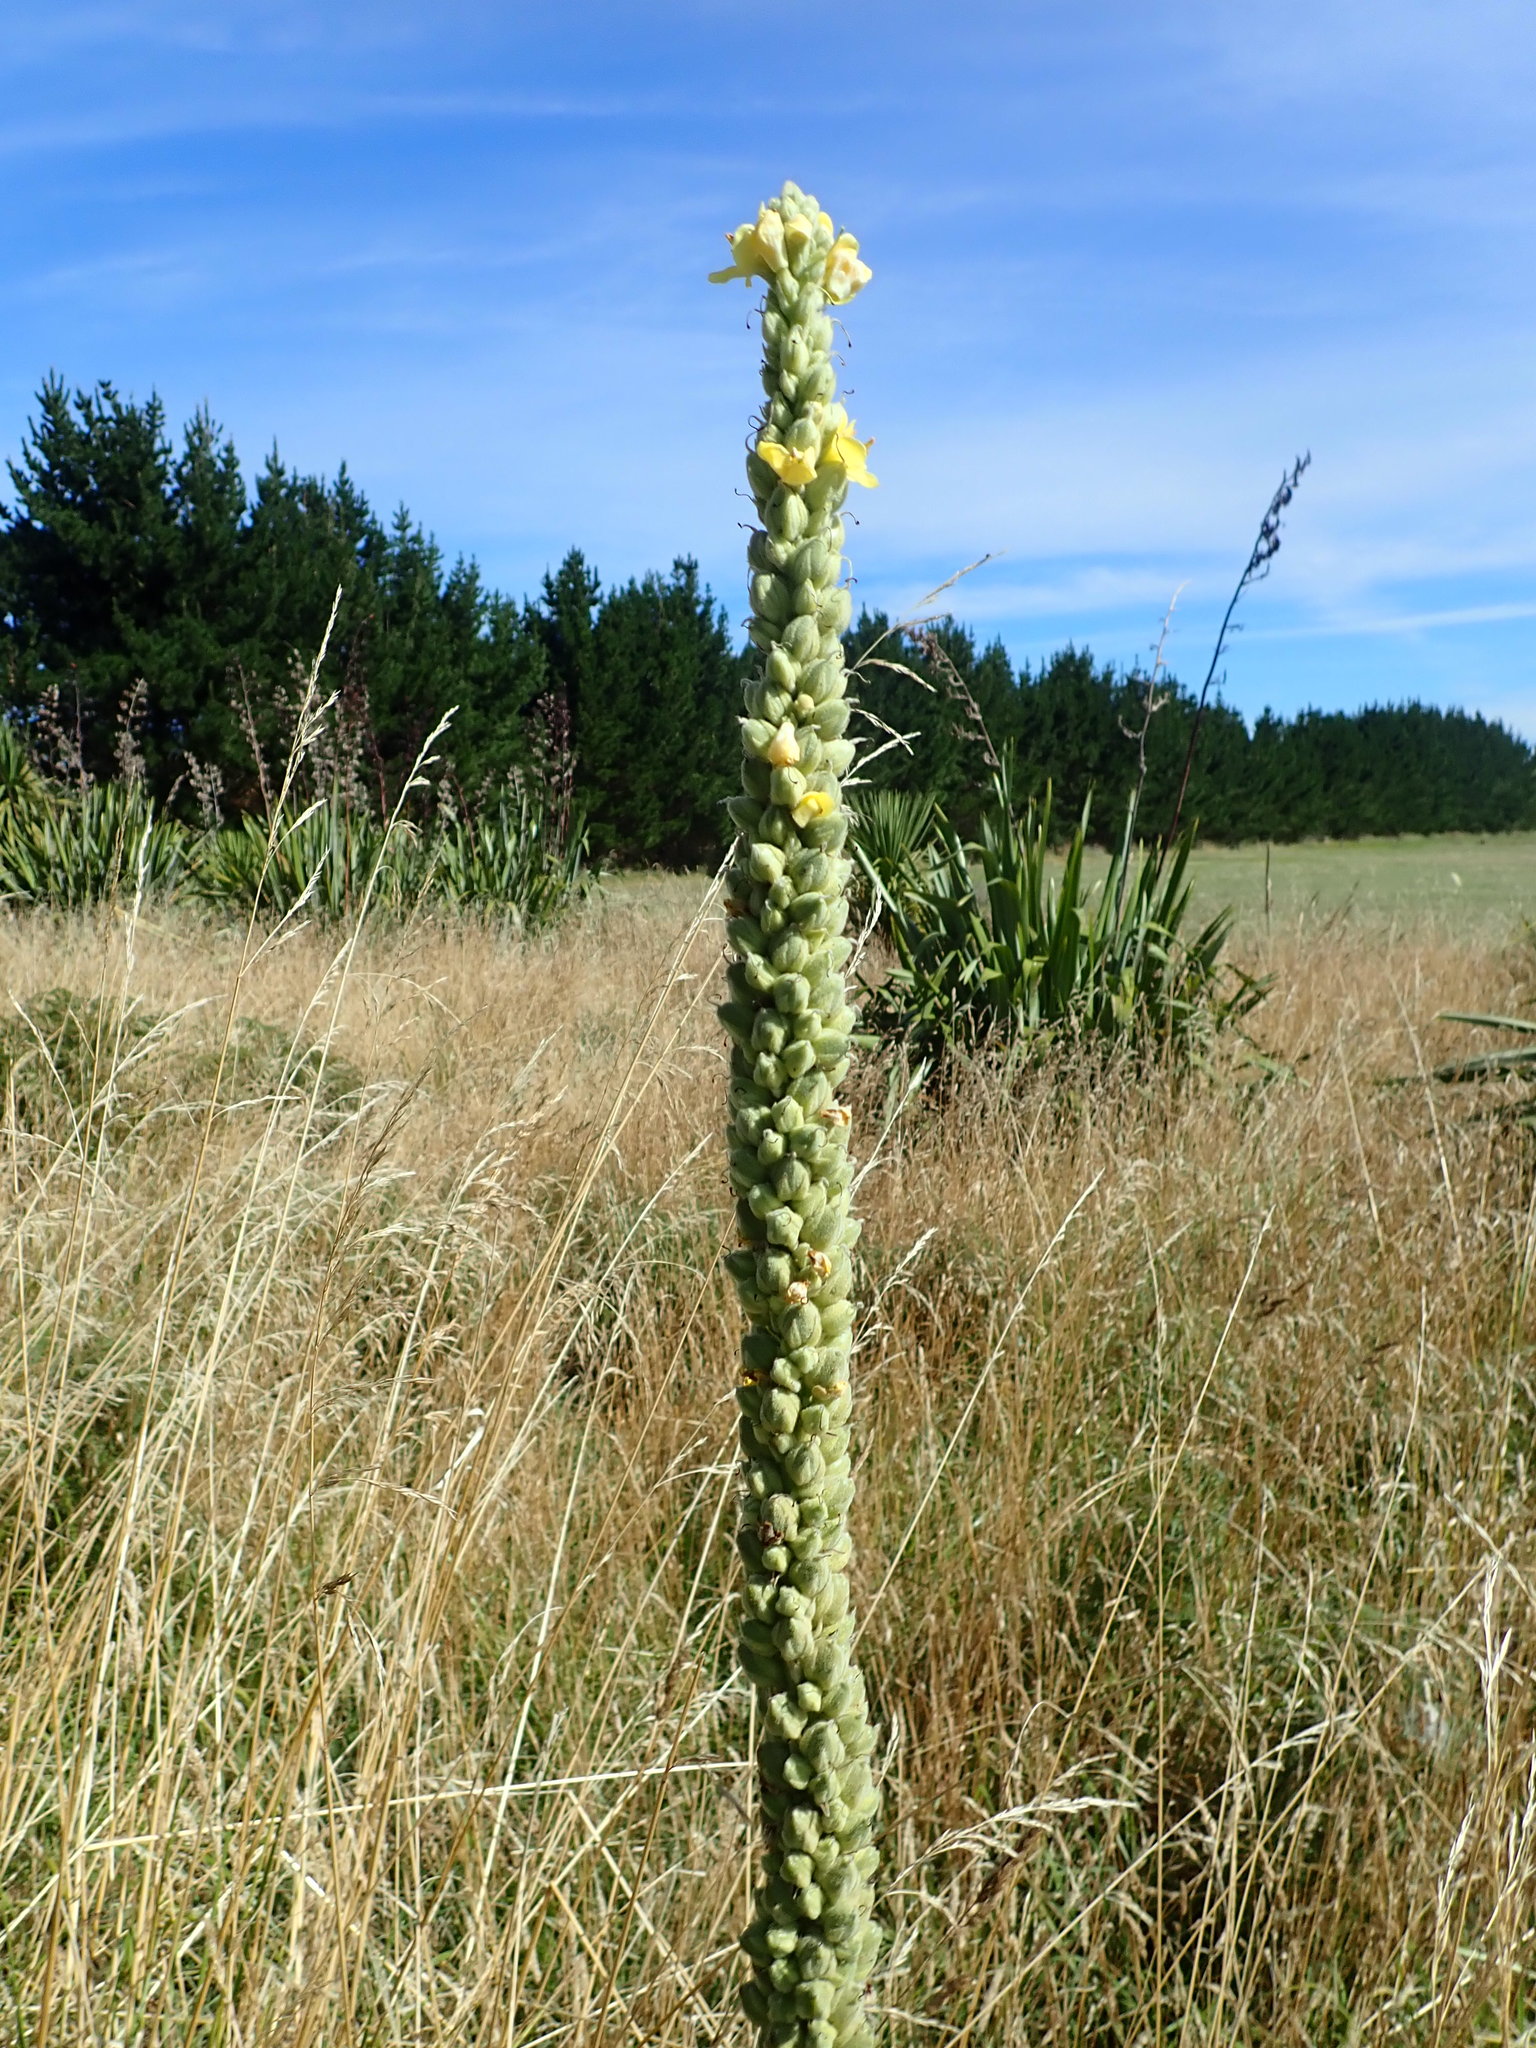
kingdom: Plantae
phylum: Tracheophyta
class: Magnoliopsida
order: Lamiales
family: Scrophulariaceae
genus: Verbascum
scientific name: Verbascum thapsus
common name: Common mullein
